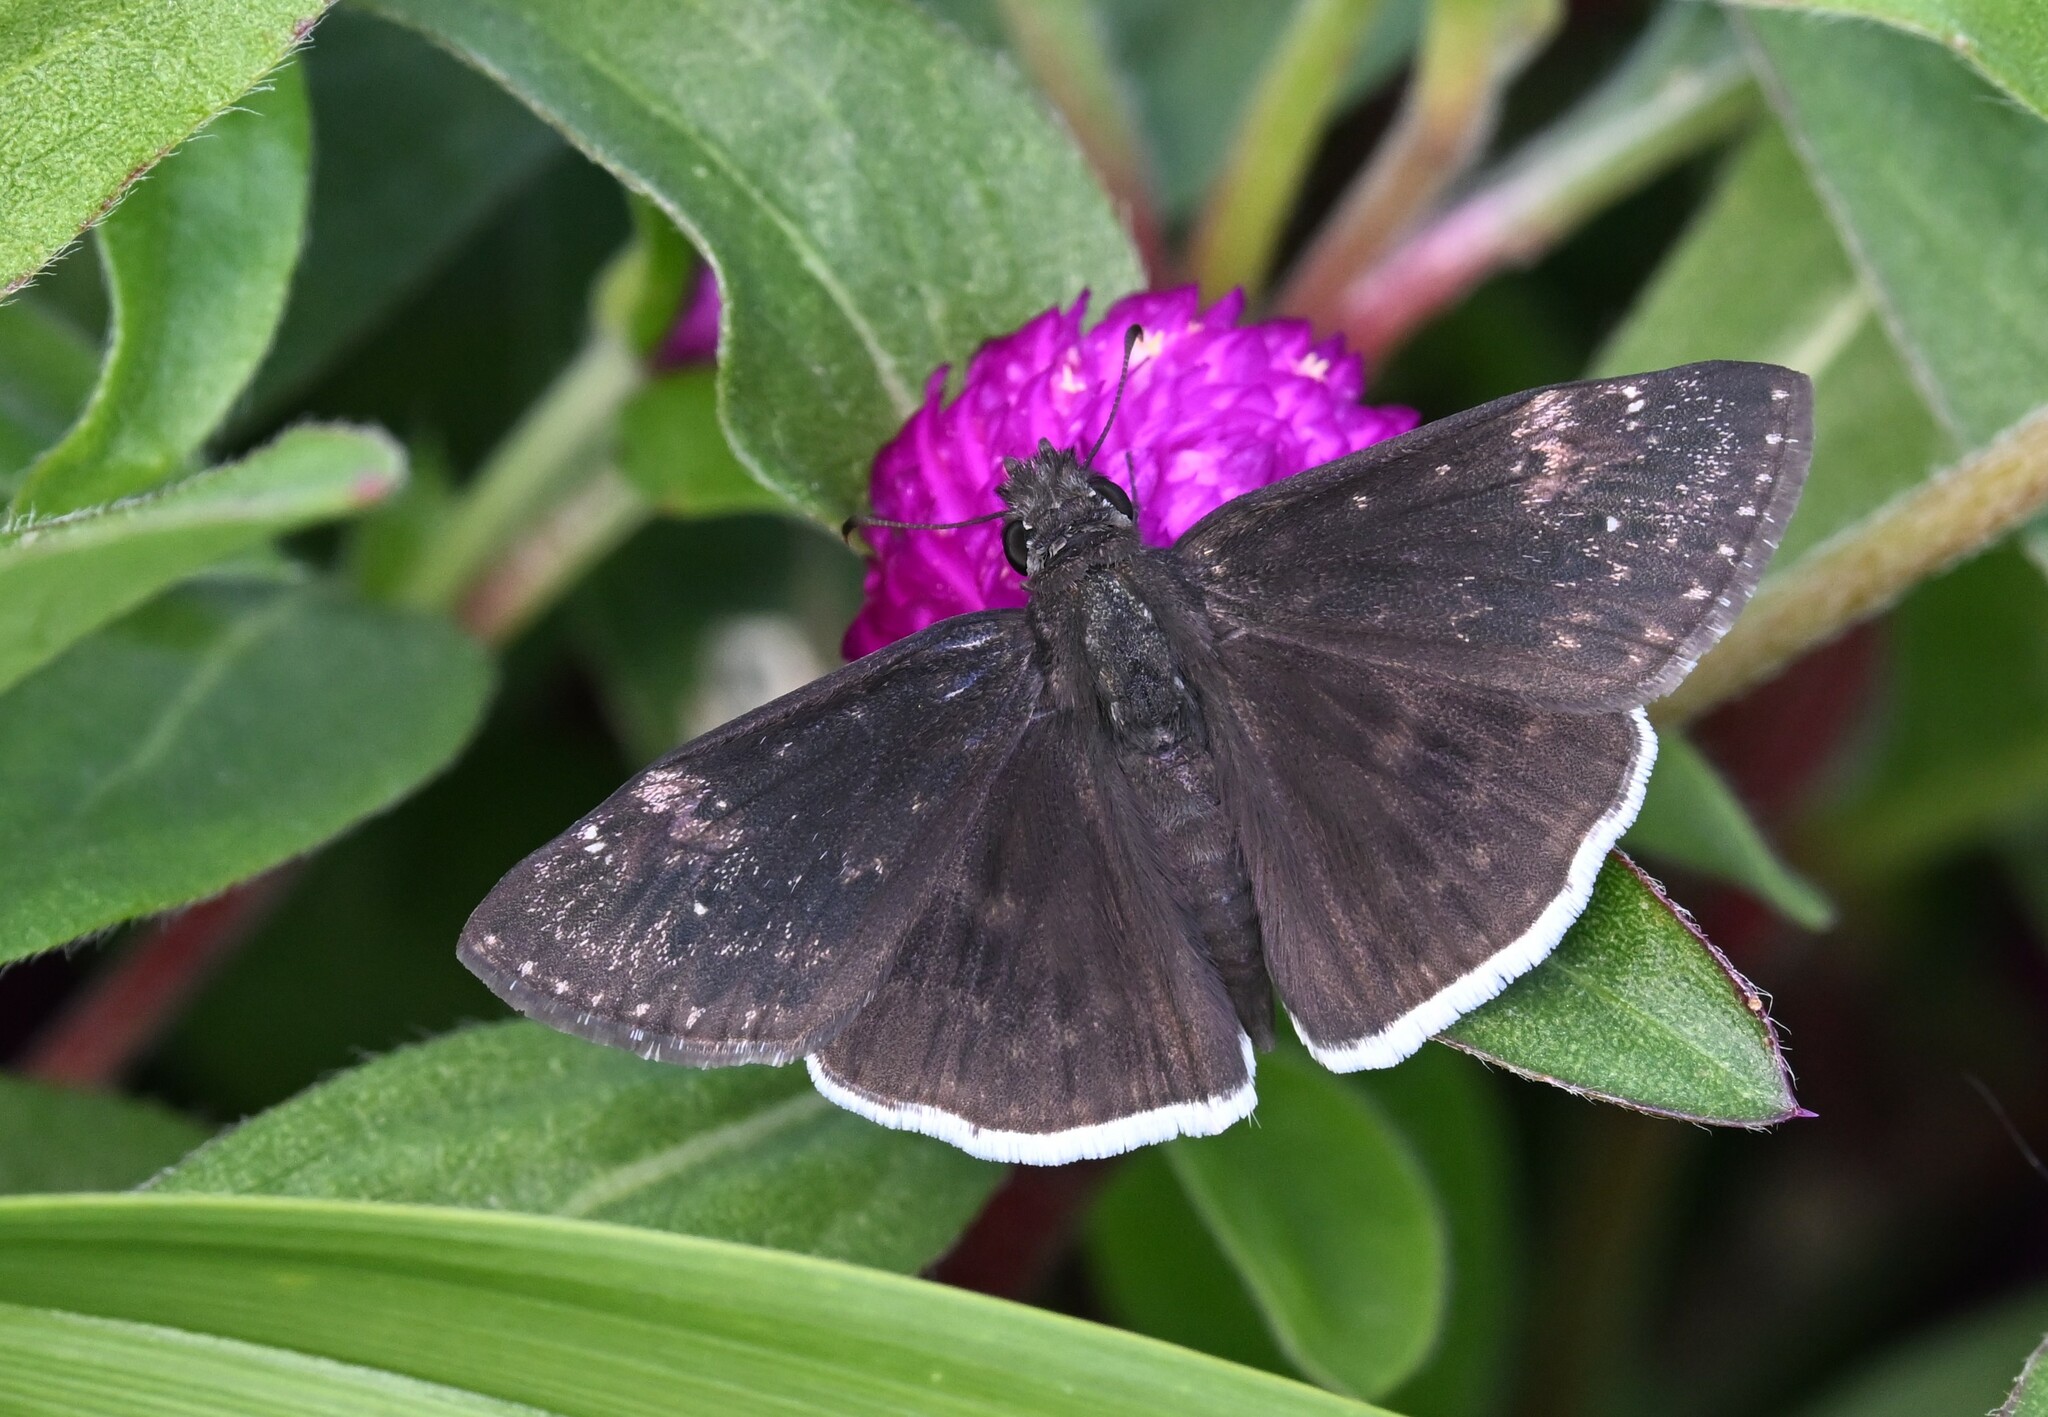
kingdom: Animalia
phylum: Arthropoda
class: Insecta
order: Lepidoptera
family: Hesperiidae
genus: Erynnis
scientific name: Erynnis funeralis
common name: Funereal duskywing
